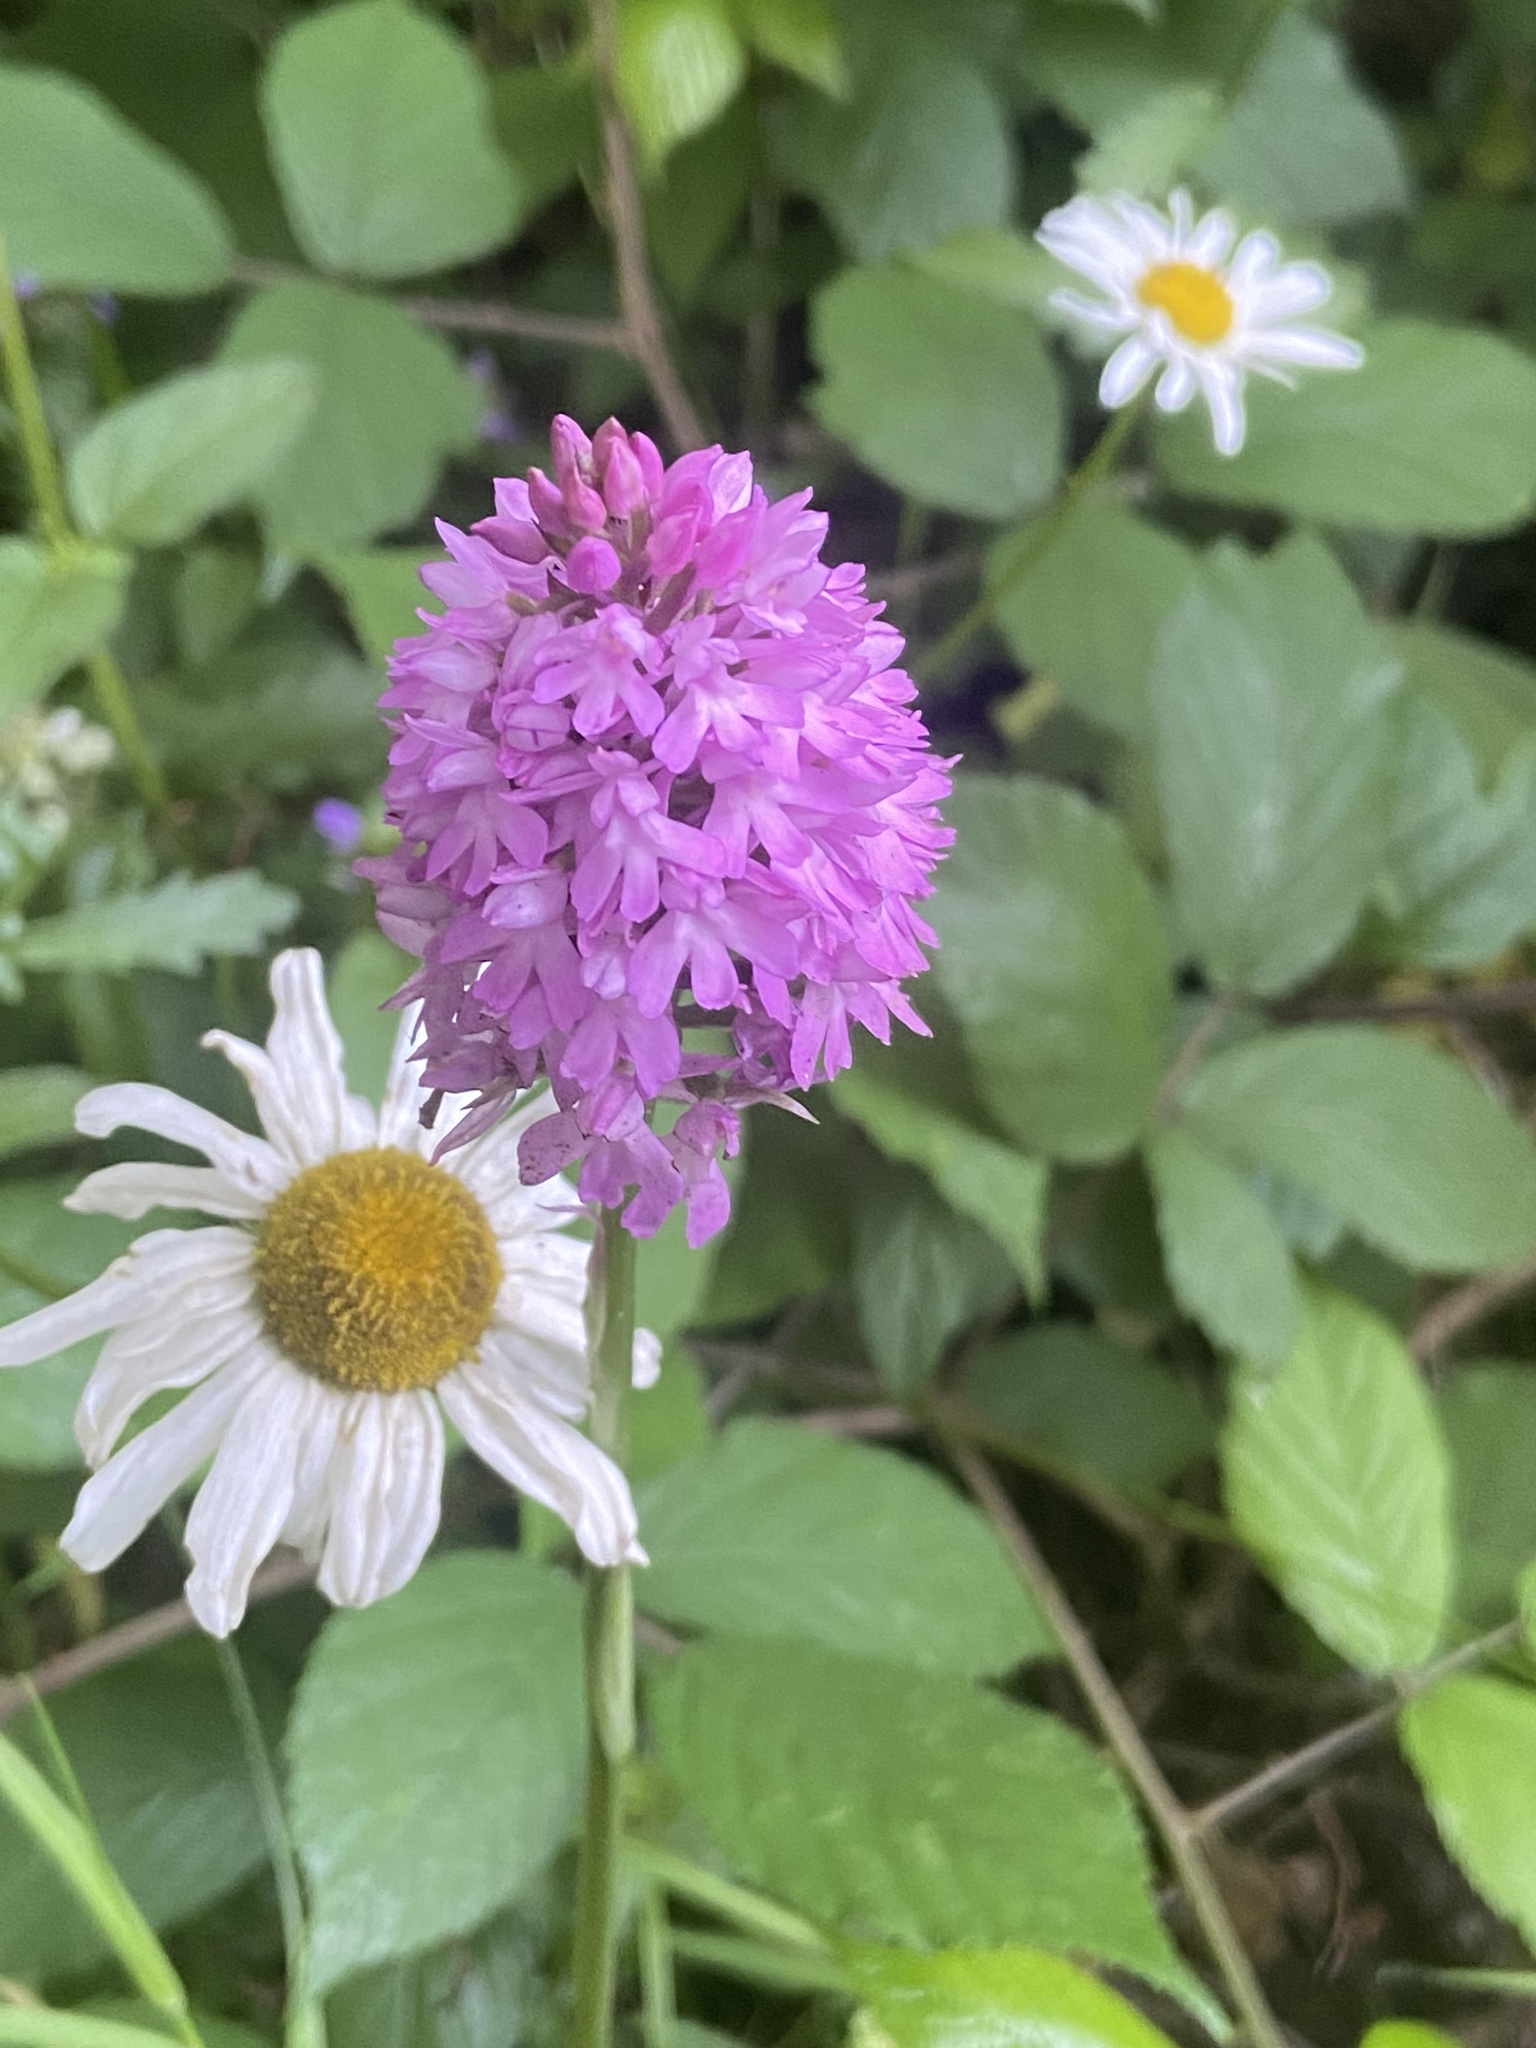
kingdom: Plantae
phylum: Tracheophyta
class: Liliopsida
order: Asparagales
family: Orchidaceae
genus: Anacamptis
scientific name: Anacamptis pyramidalis
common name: Pyramidal orchid
